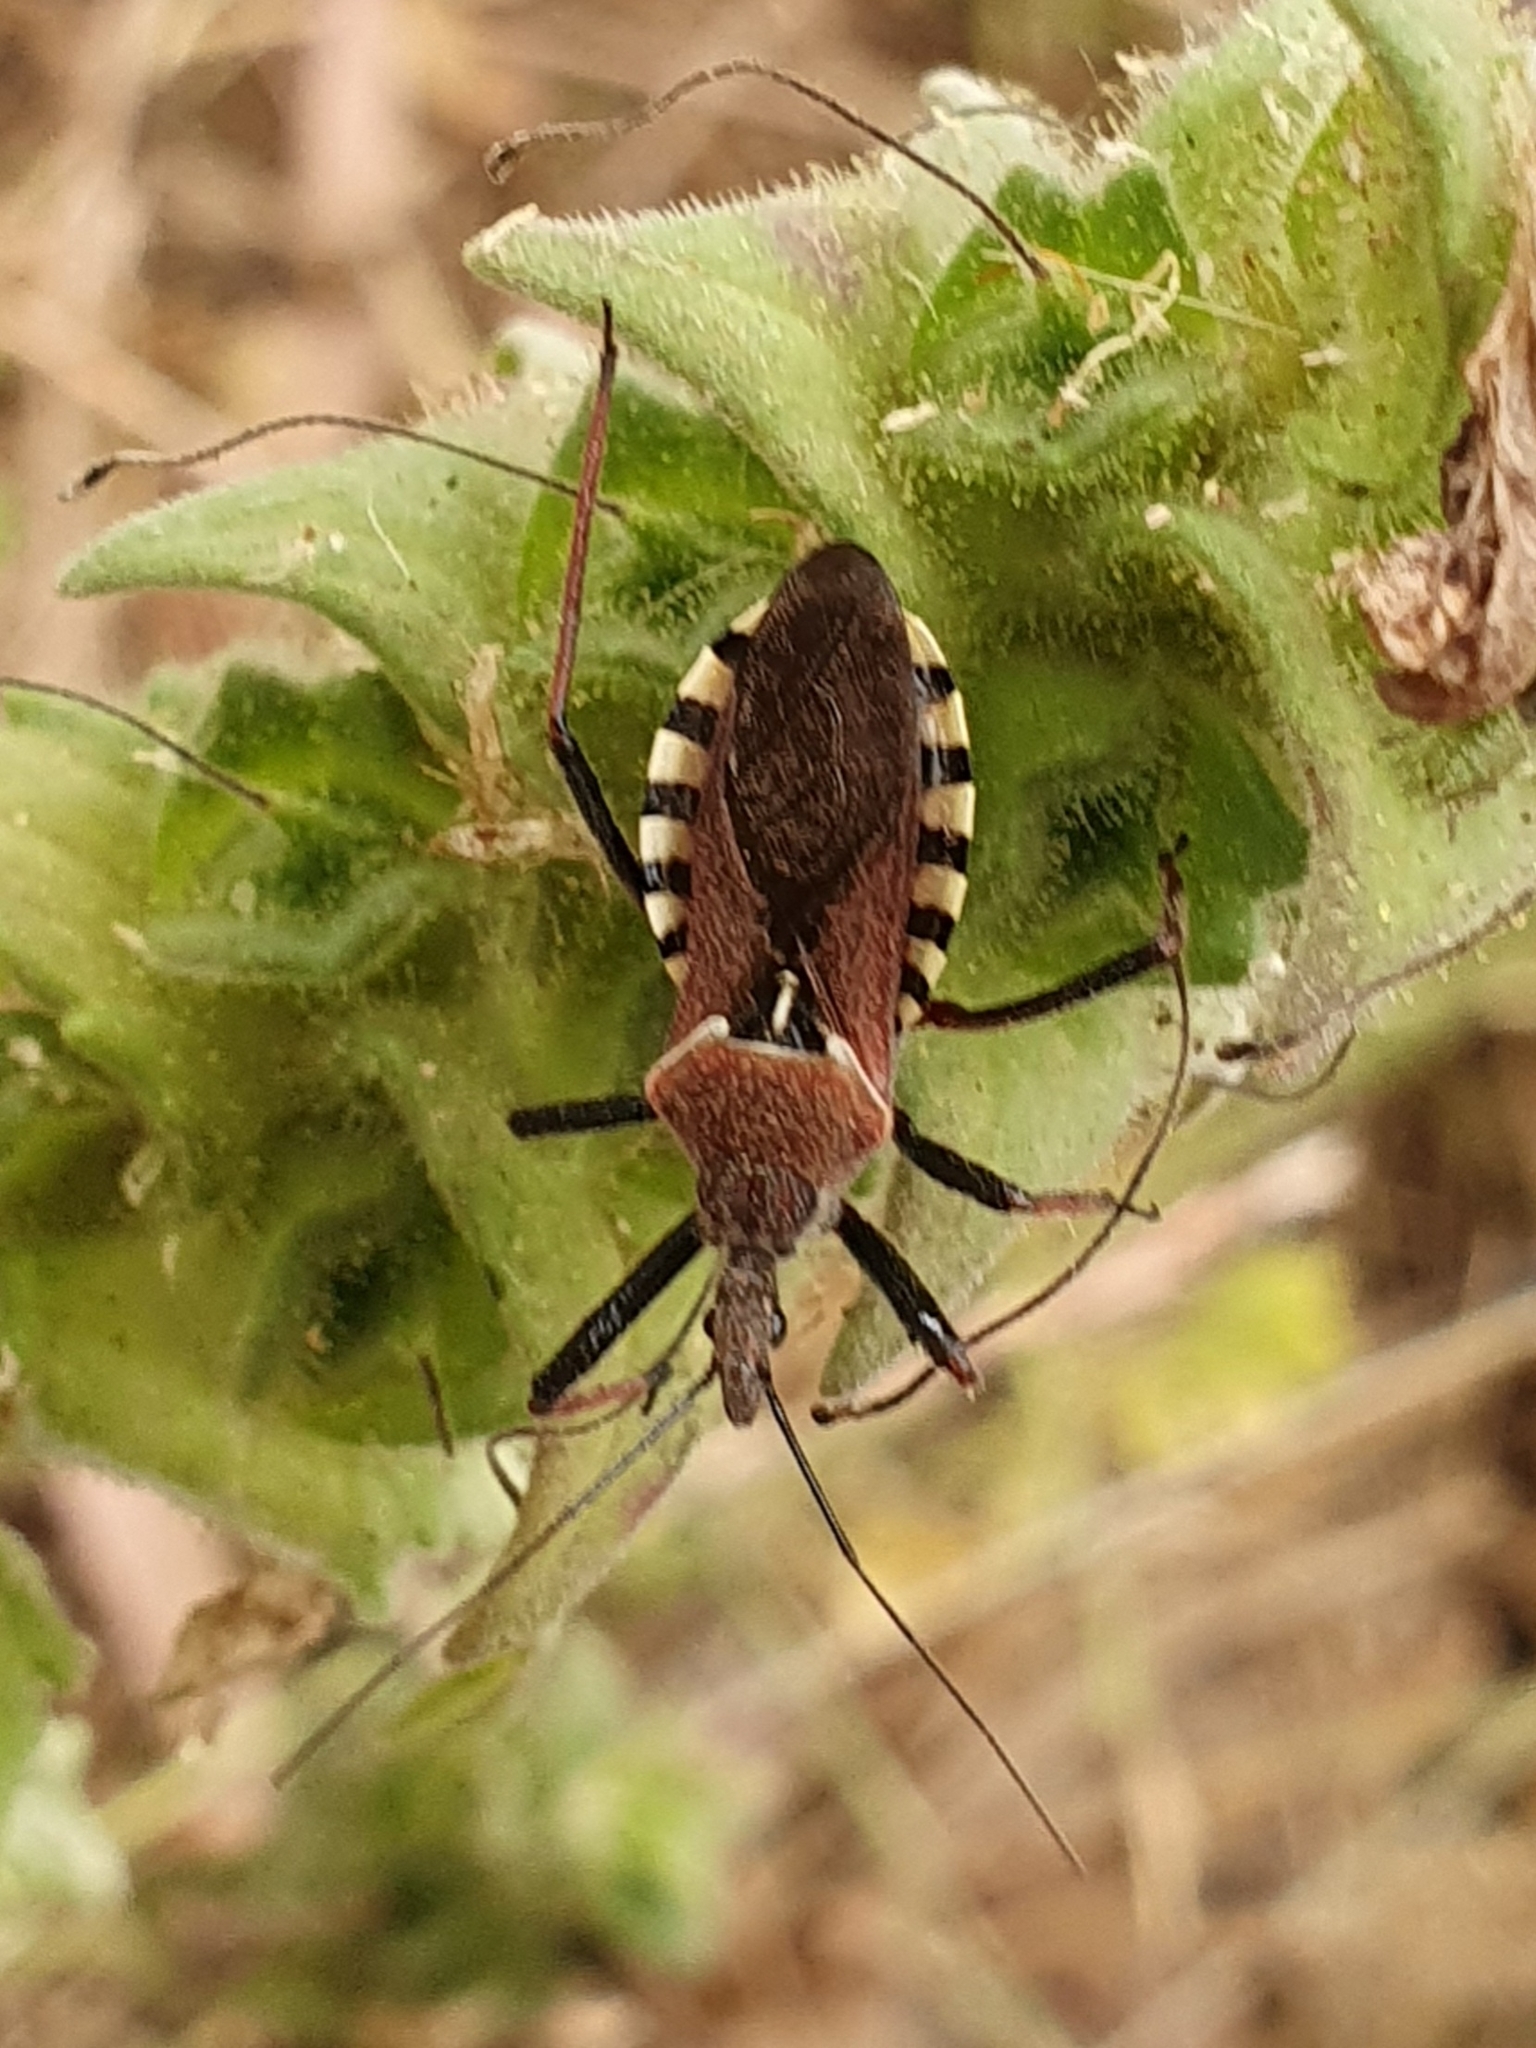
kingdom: Animalia
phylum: Arthropoda
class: Insecta
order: Hemiptera
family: Reduviidae
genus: Rhynocoris
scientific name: Rhynocoris erythropus
